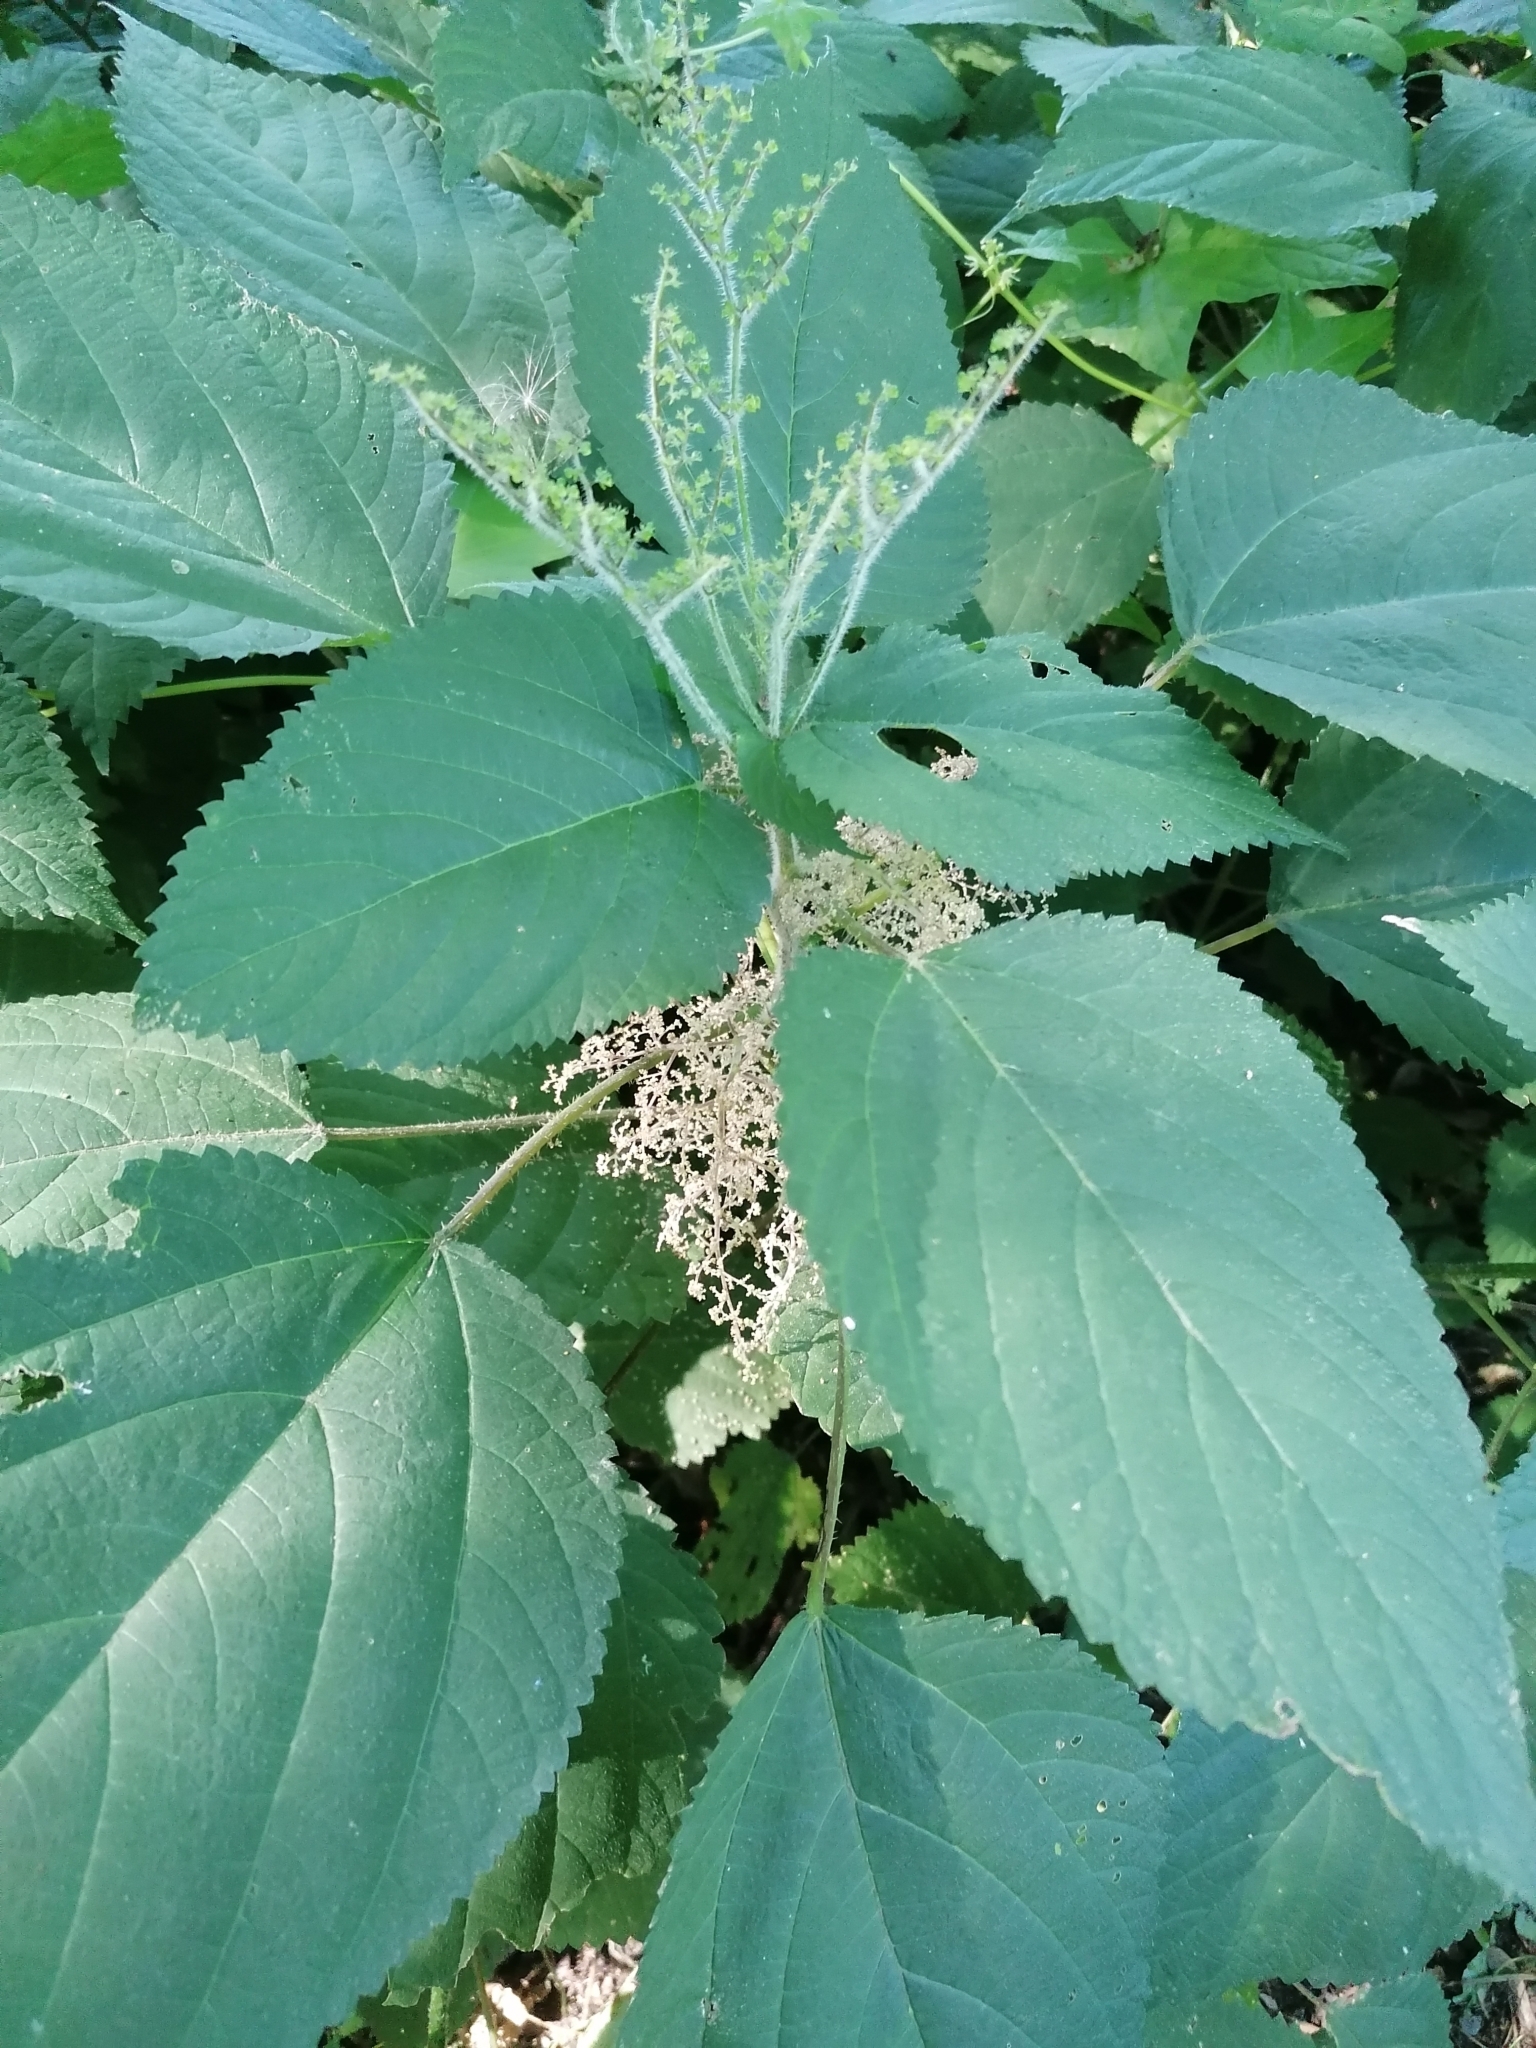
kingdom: Plantae
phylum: Tracheophyta
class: Magnoliopsida
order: Rosales
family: Urticaceae
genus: Laportea
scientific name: Laportea canadensis
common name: Canada nettle
